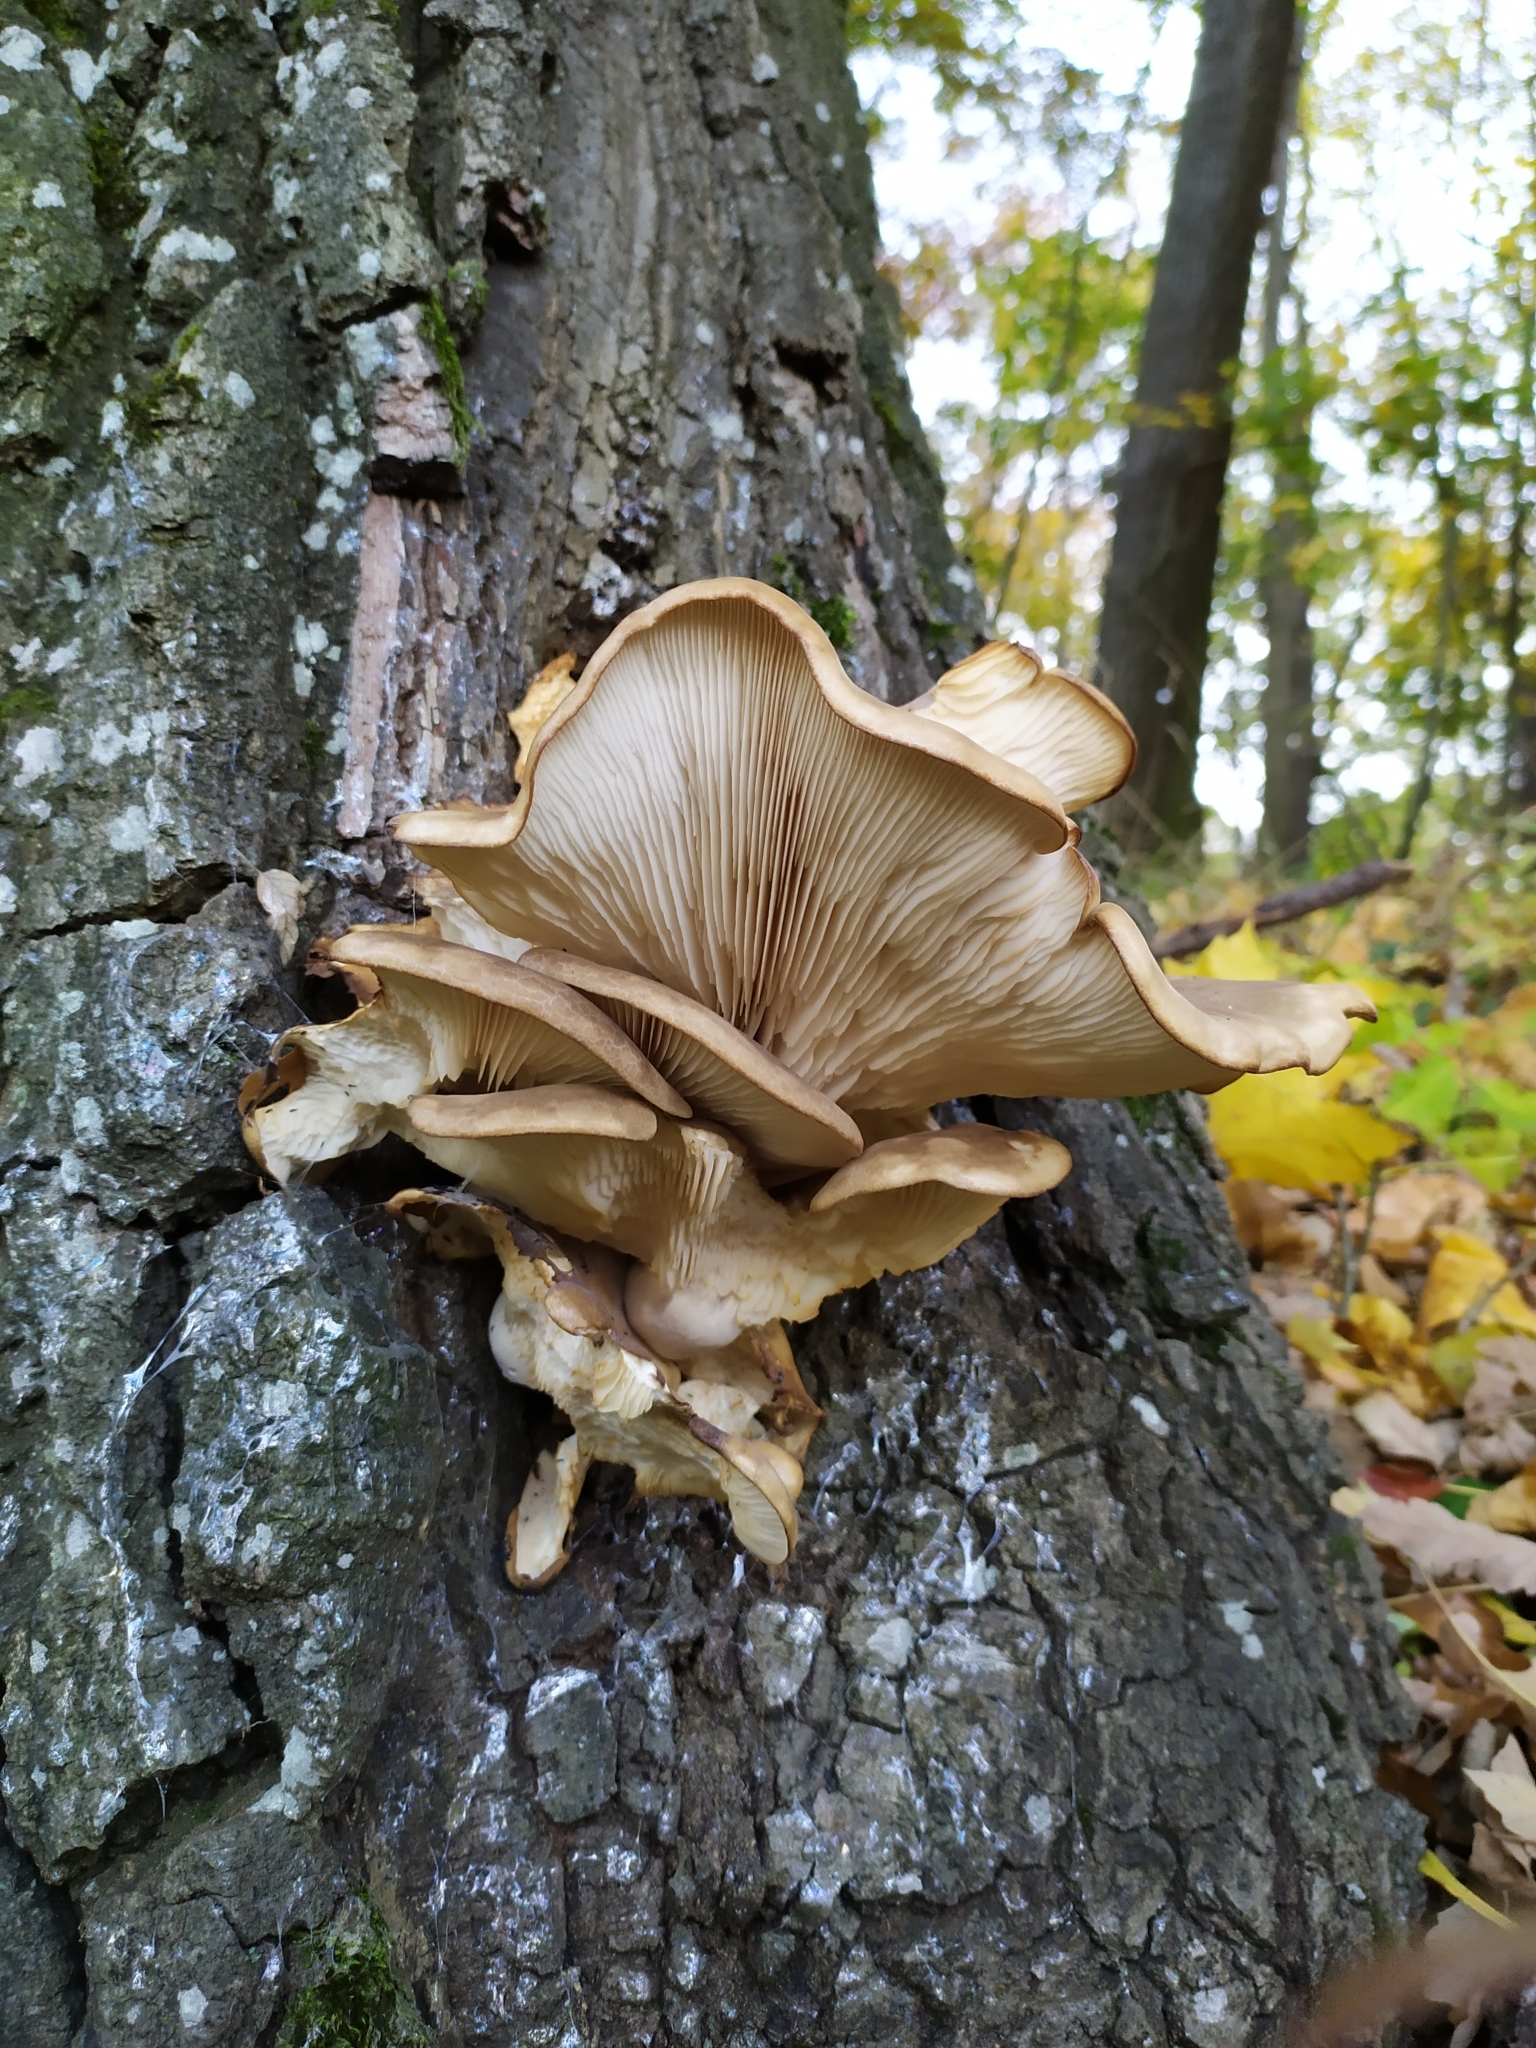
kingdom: Fungi
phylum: Basidiomycota
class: Agaricomycetes
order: Agaricales
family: Pleurotaceae
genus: Pleurotus
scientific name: Pleurotus ostreatus
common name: Oyster mushroom
